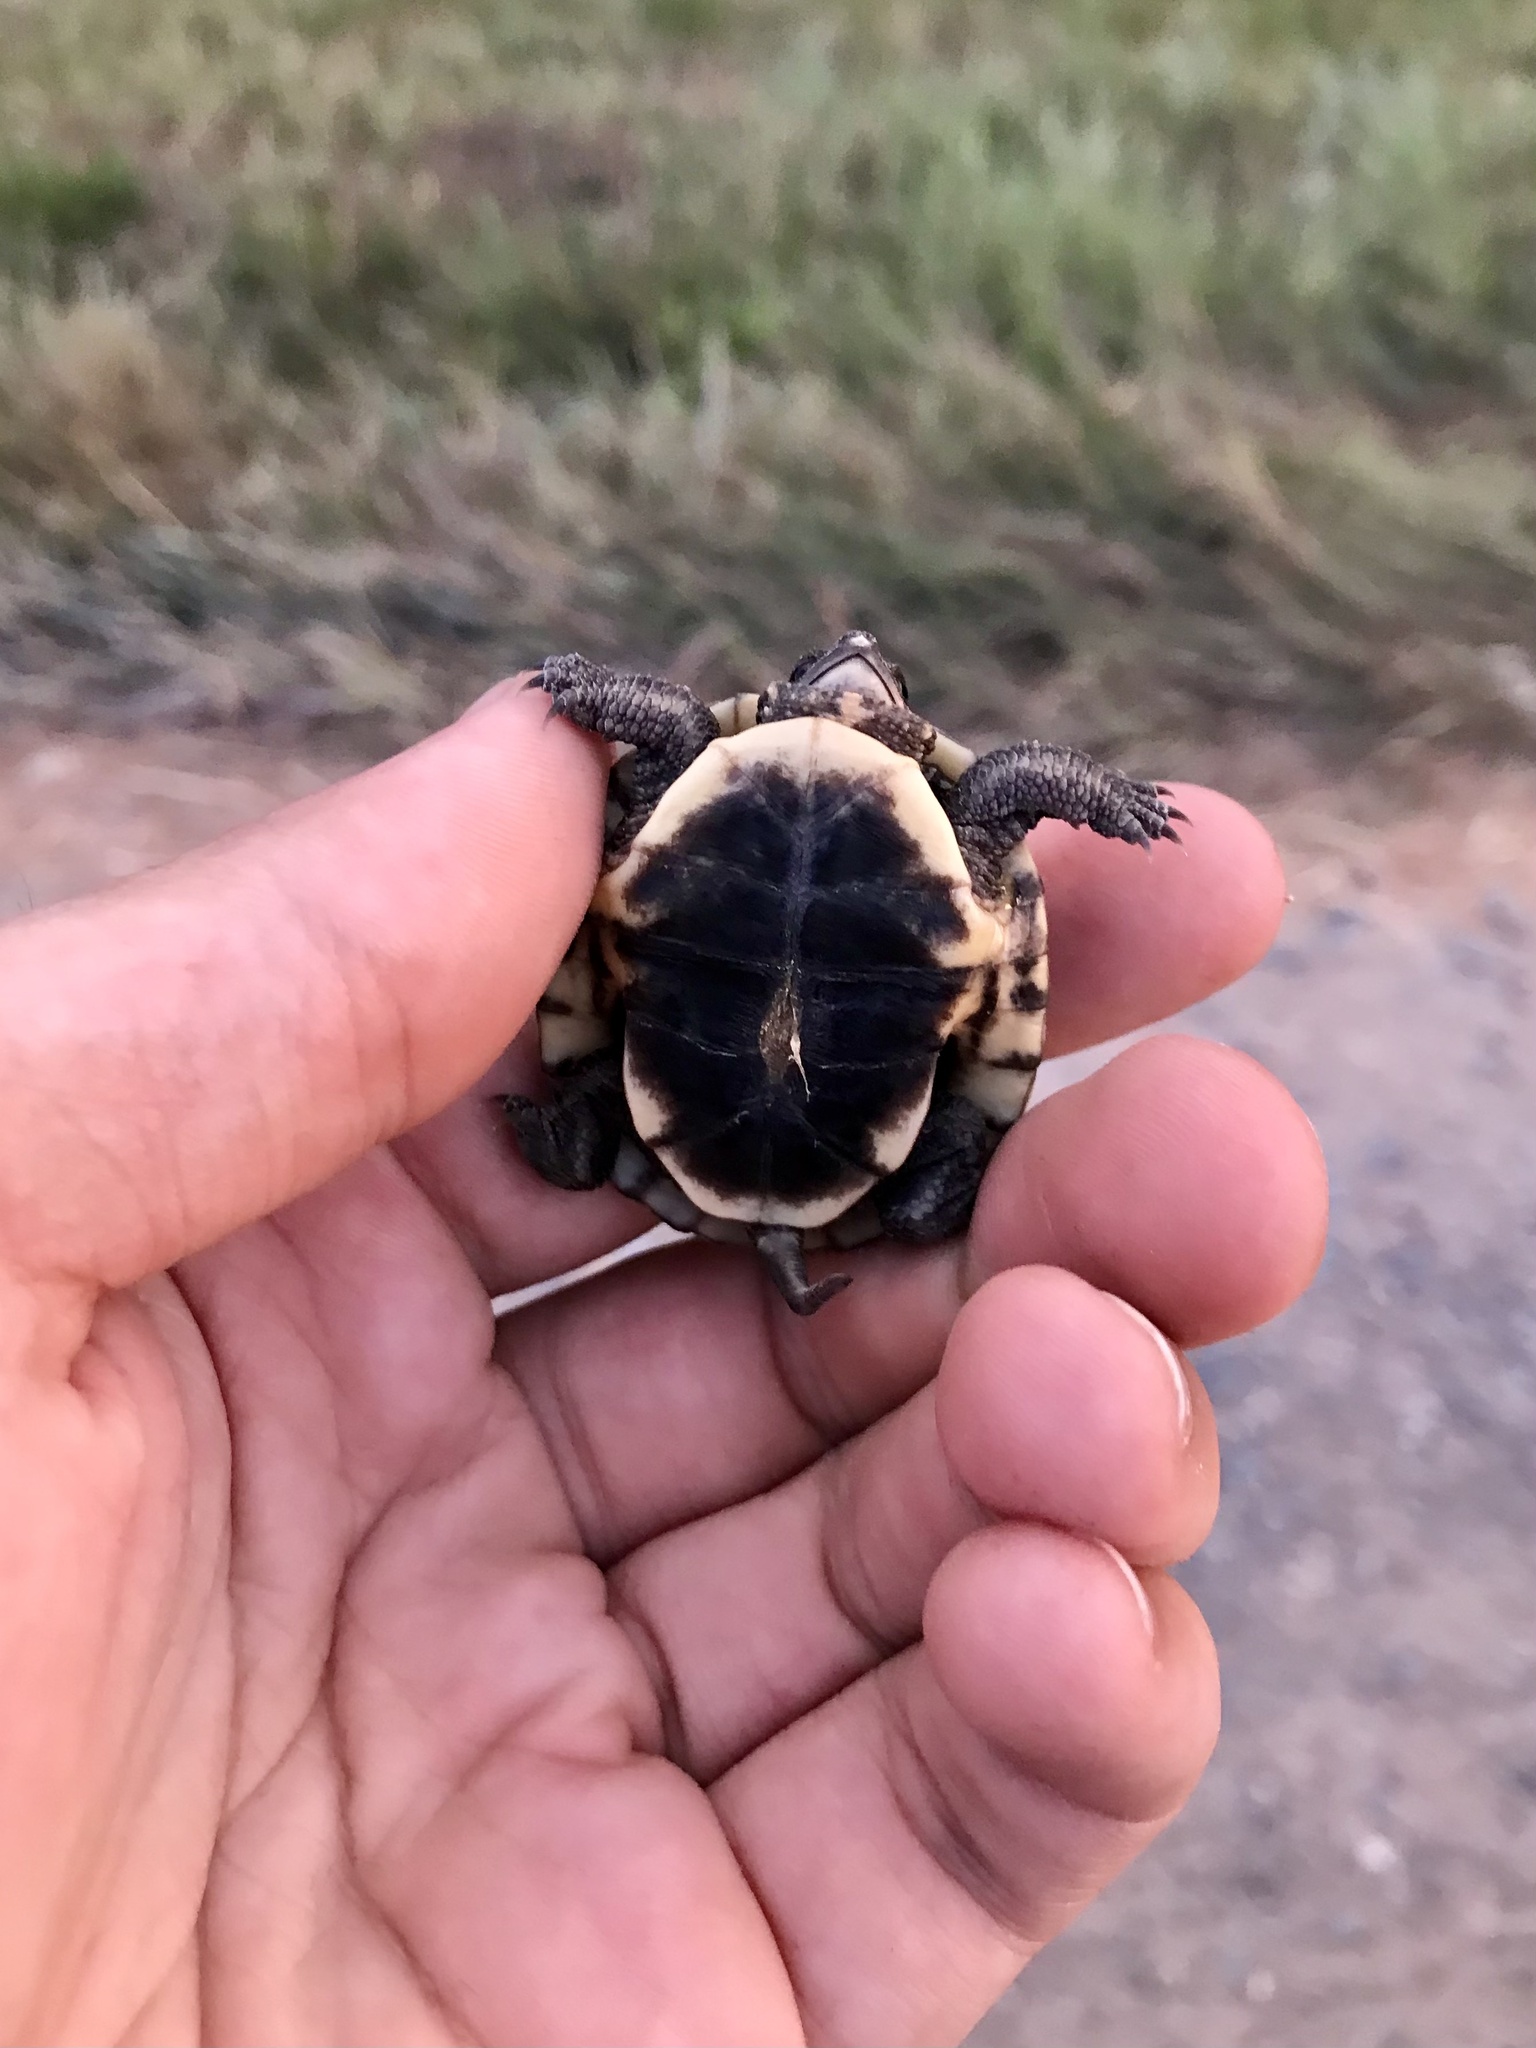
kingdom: Animalia
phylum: Chordata
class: Testudines
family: Emydidae
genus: Emys
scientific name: Emys blandingii
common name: Blanding's turtle
